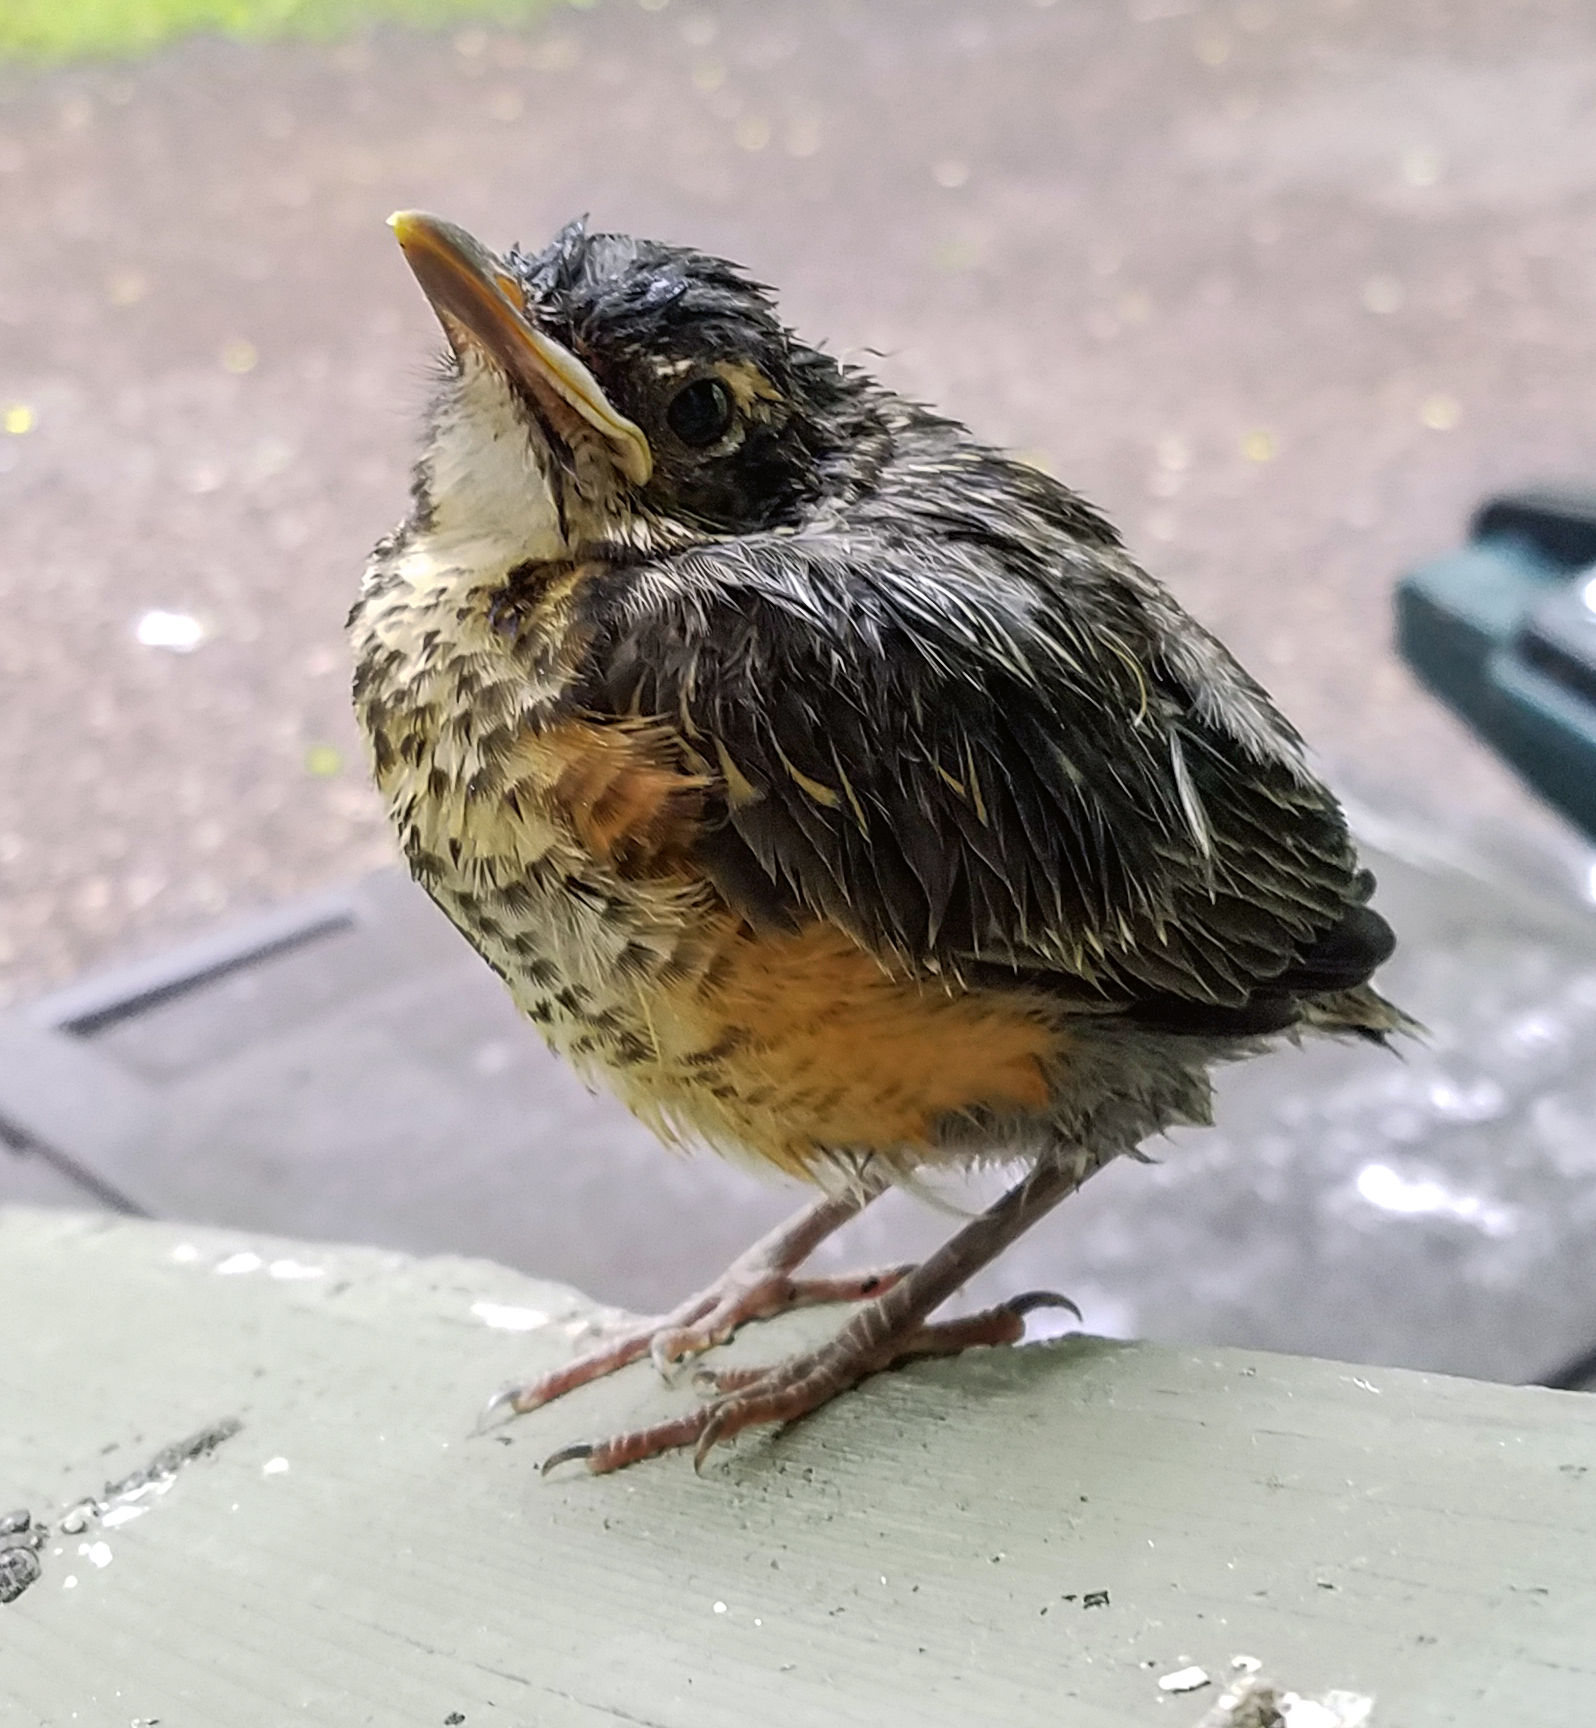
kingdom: Animalia
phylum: Chordata
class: Aves
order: Passeriformes
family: Turdidae
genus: Turdus
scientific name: Turdus migratorius
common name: American robin
